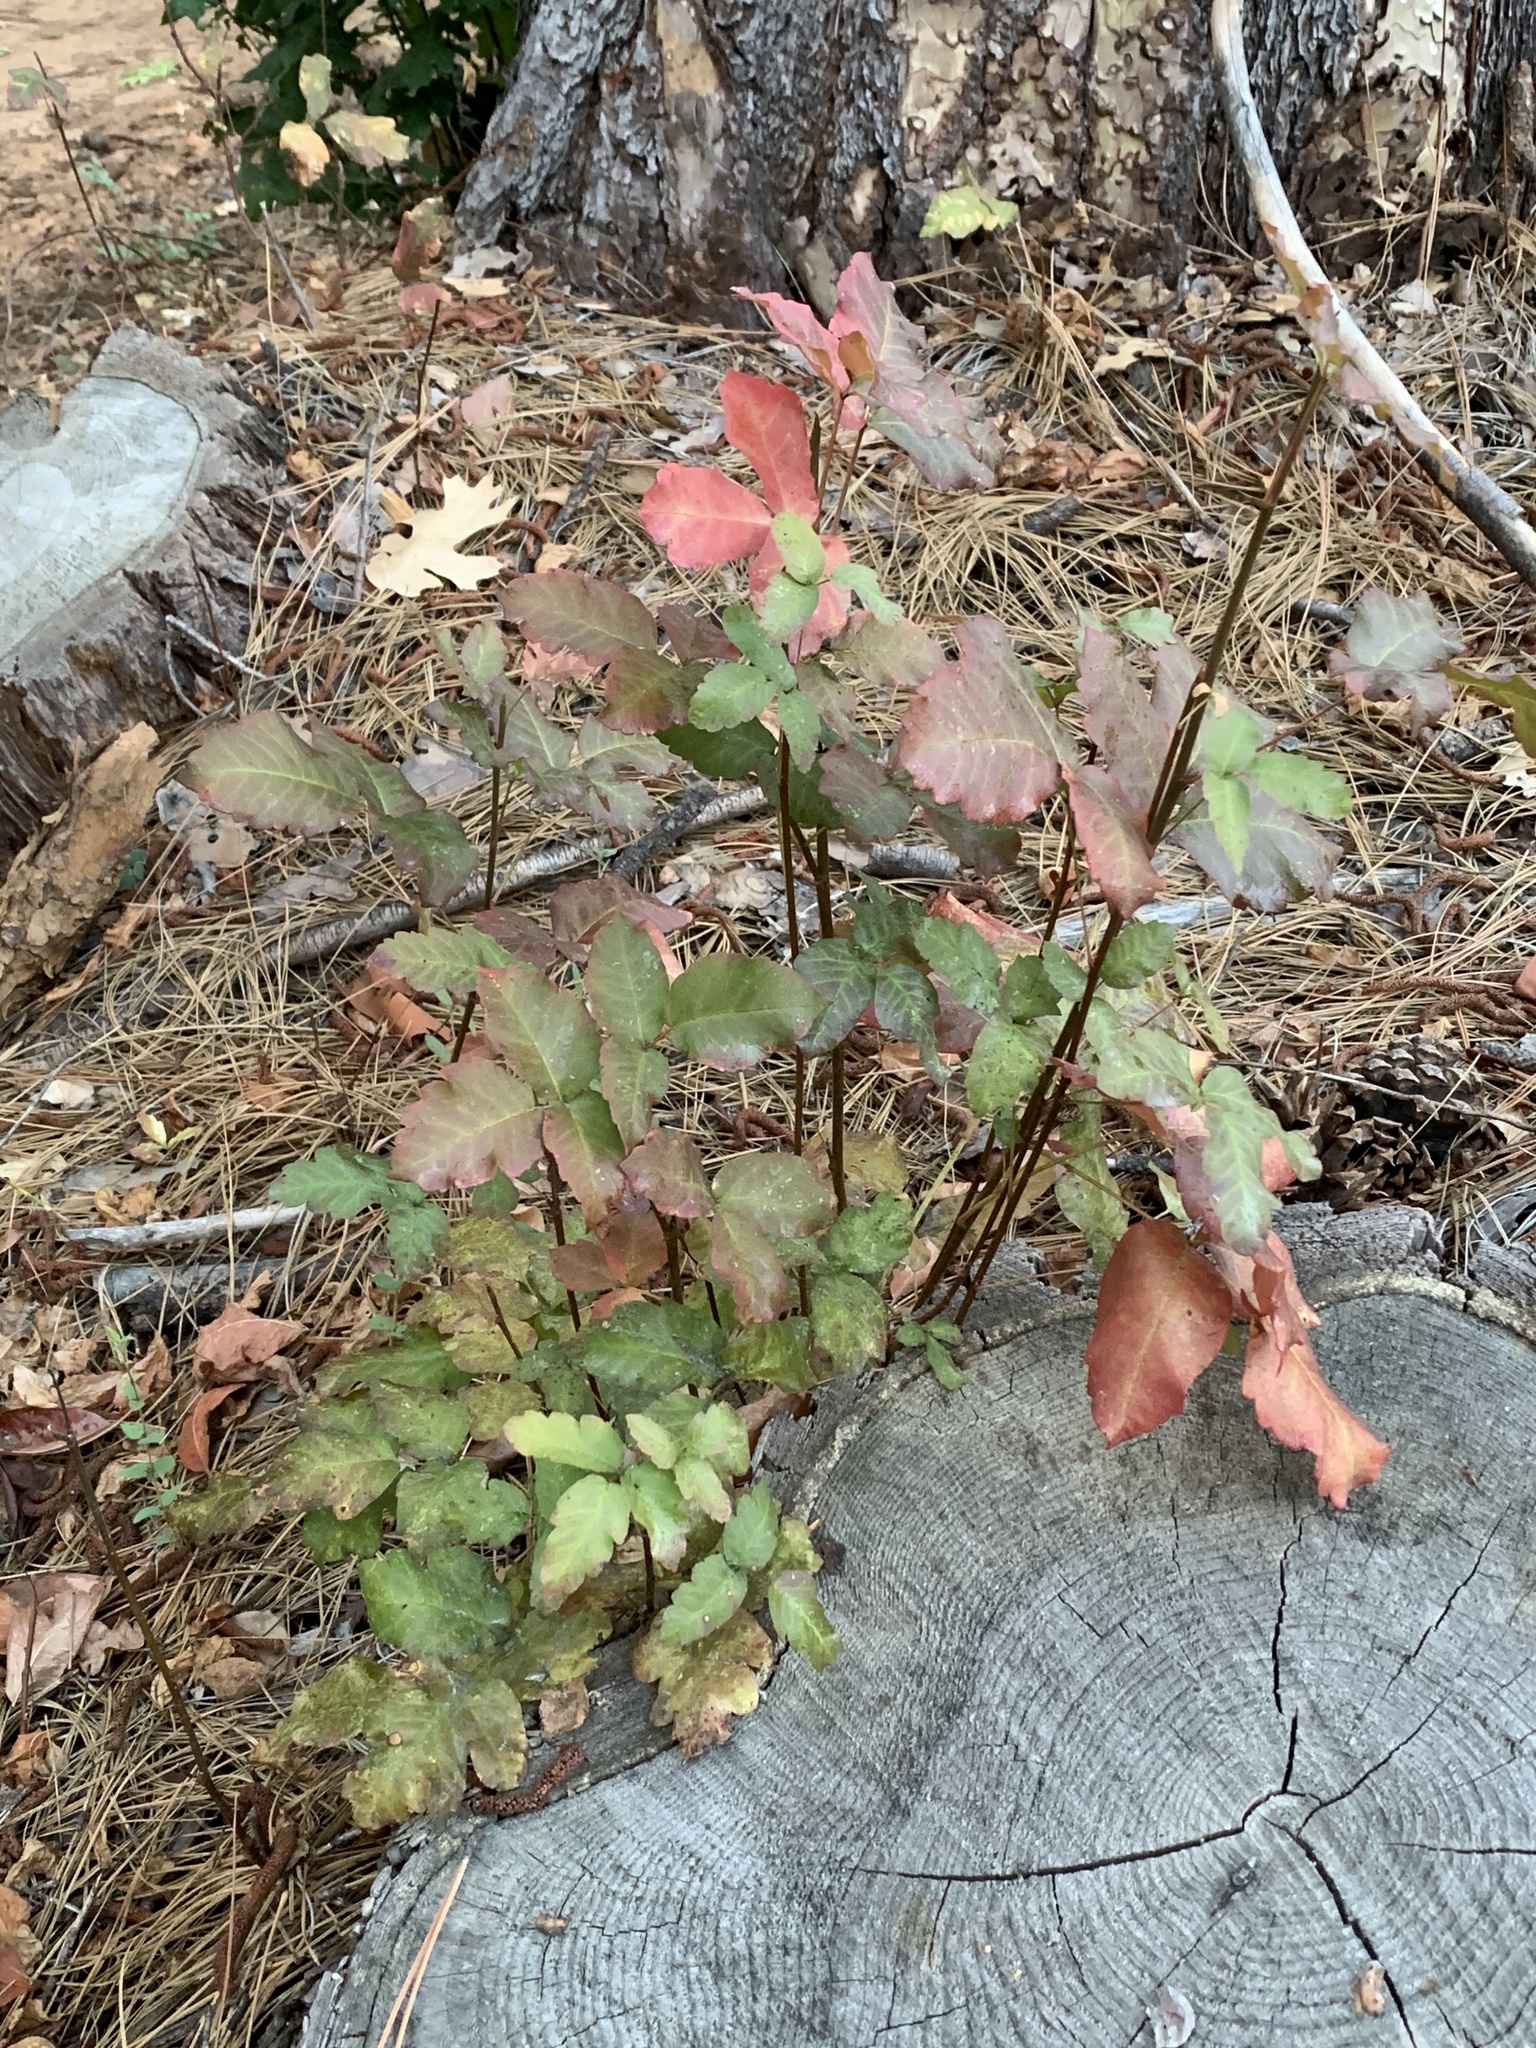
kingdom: Plantae
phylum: Tracheophyta
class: Magnoliopsida
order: Sapindales
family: Anacardiaceae
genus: Toxicodendron
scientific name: Toxicodendron diversilobum
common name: Pacific poison-oak
